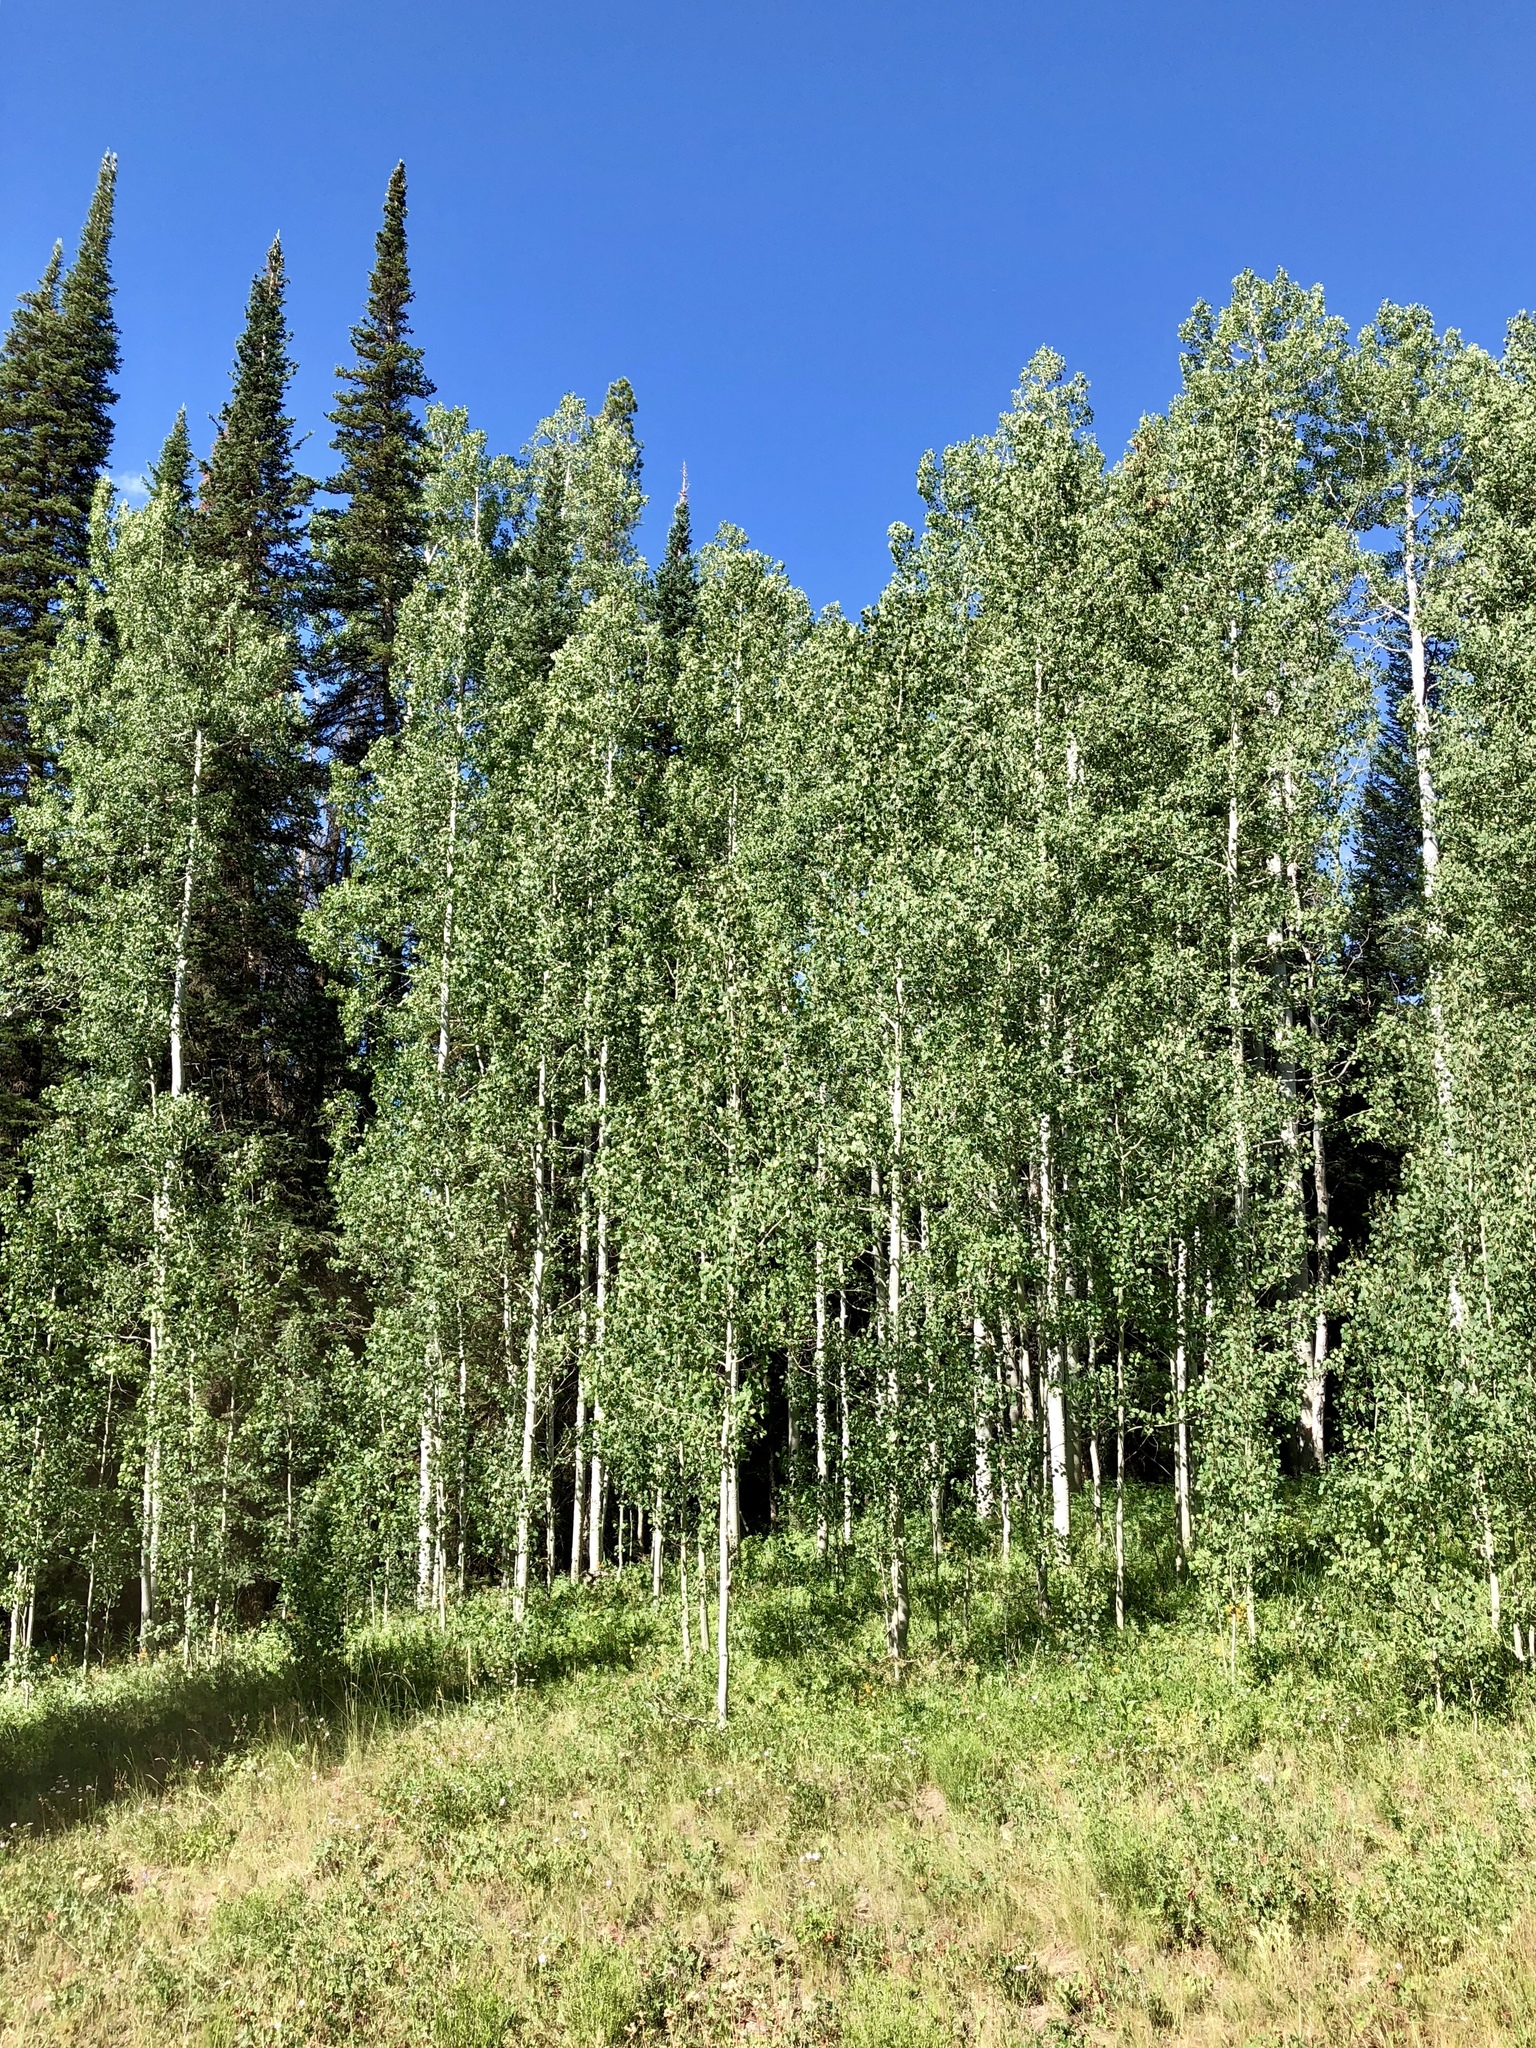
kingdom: Plantae
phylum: Tracheophyta
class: Magnoliopsida
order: Malpighiales
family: Salicaceae
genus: Populus
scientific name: Populus tremuloides
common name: Quaking aspen
